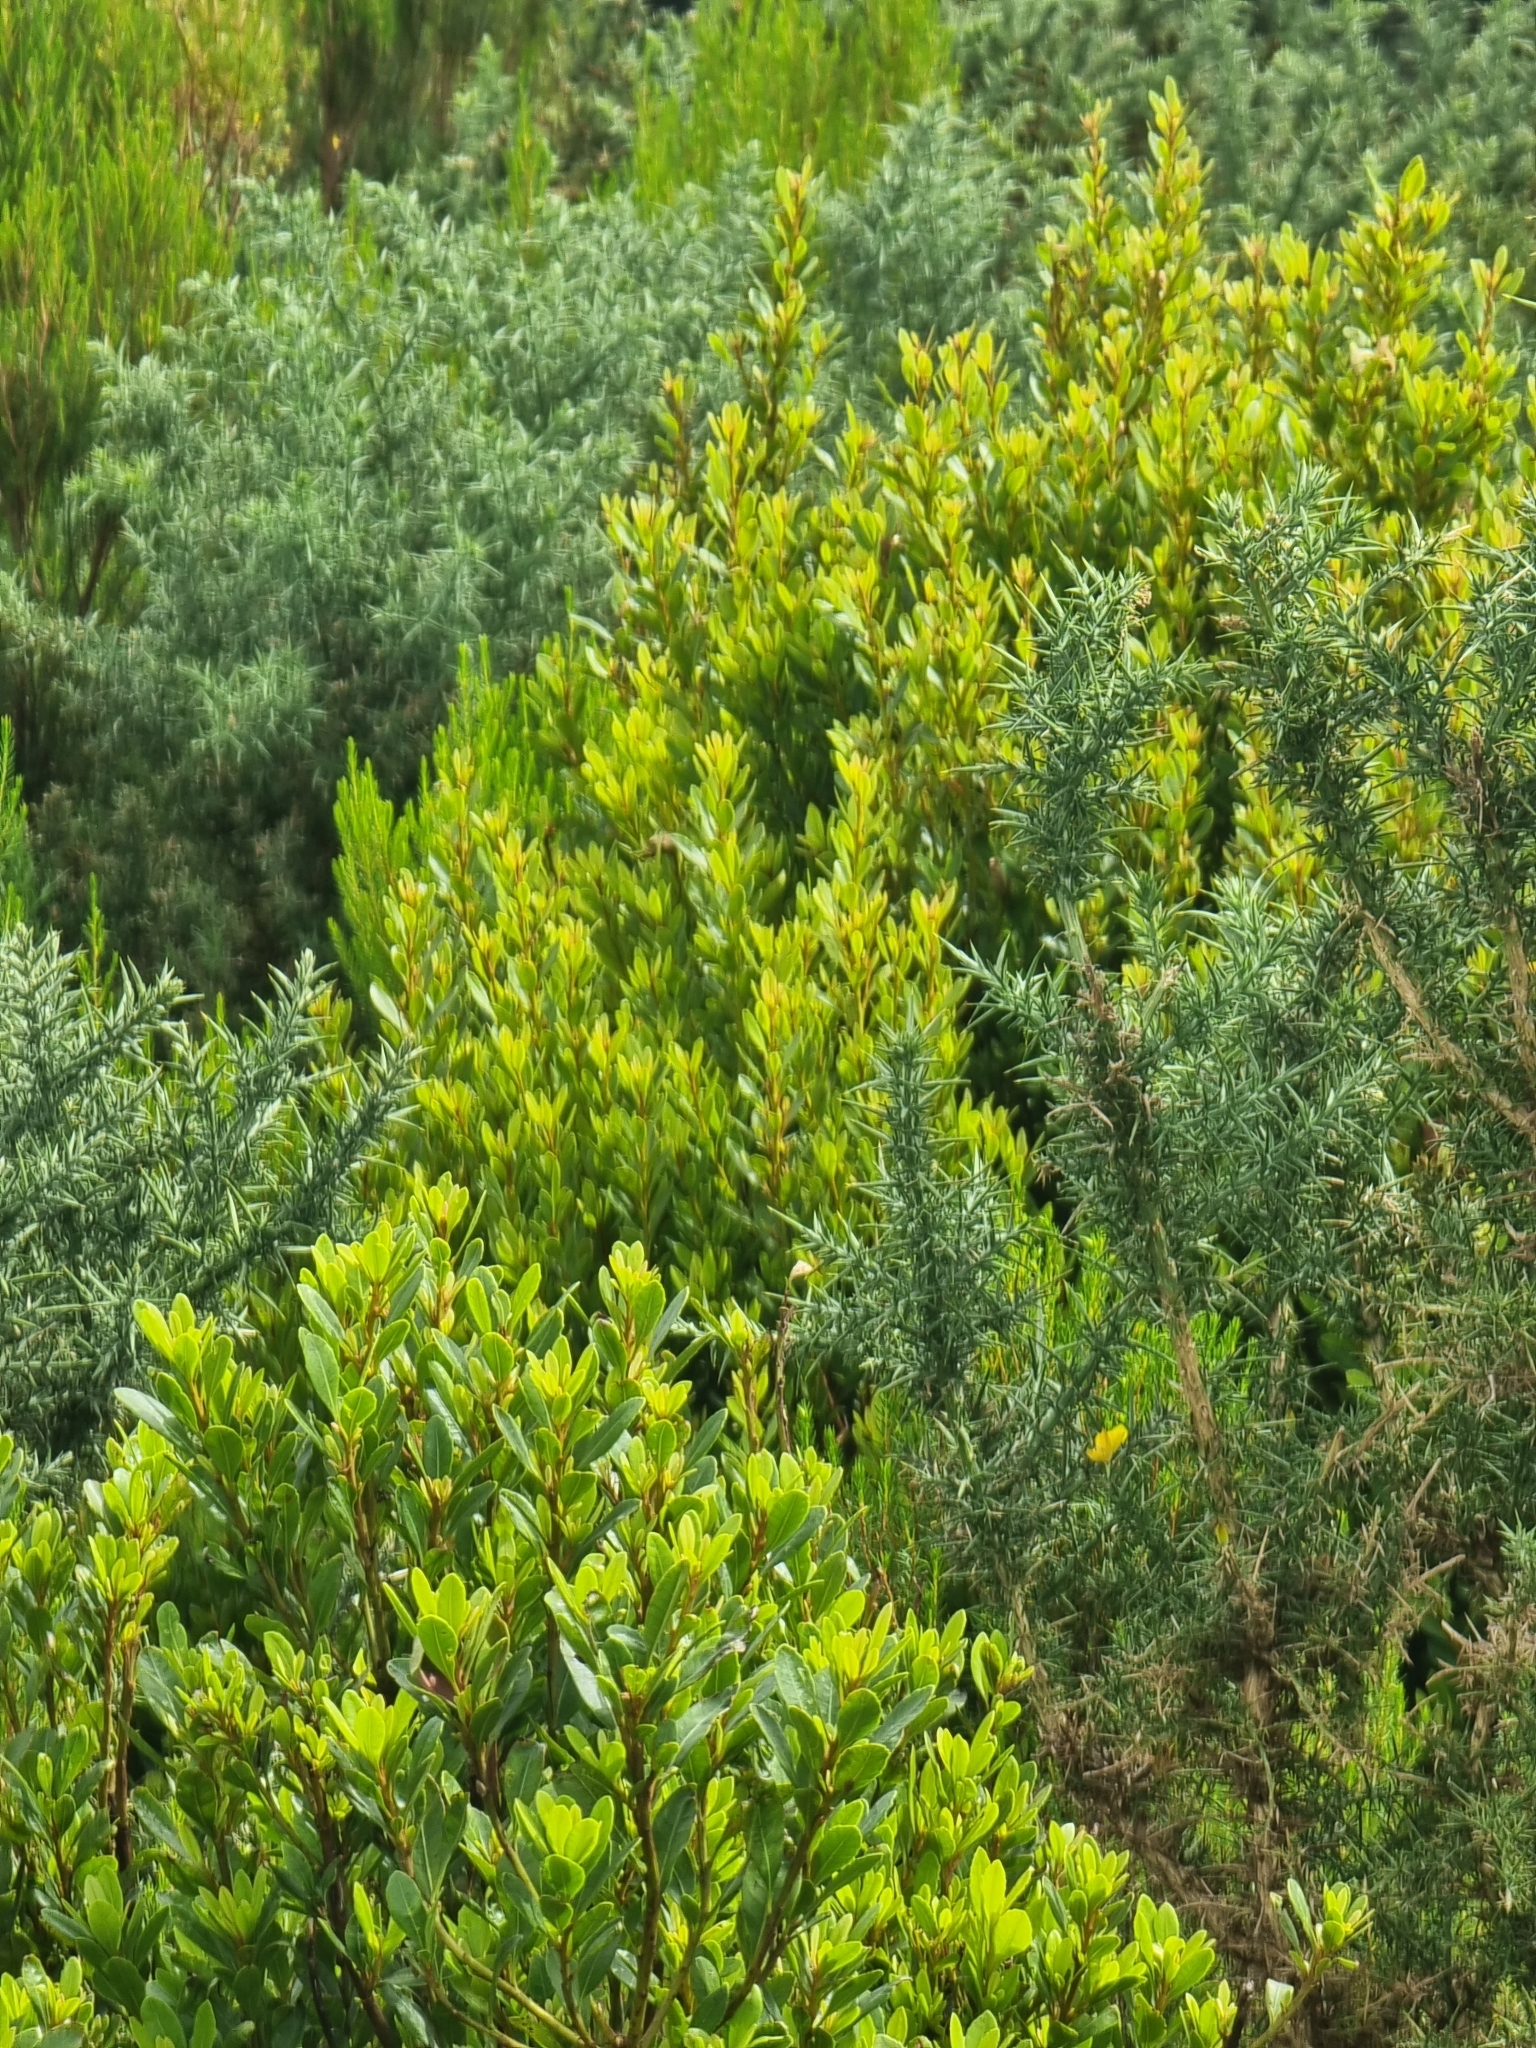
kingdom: Plantae
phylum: Tracheophyta
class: Magnoliopsida
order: Fagales
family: Myricaceae
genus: Morella
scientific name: Morella faya
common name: Firetree
